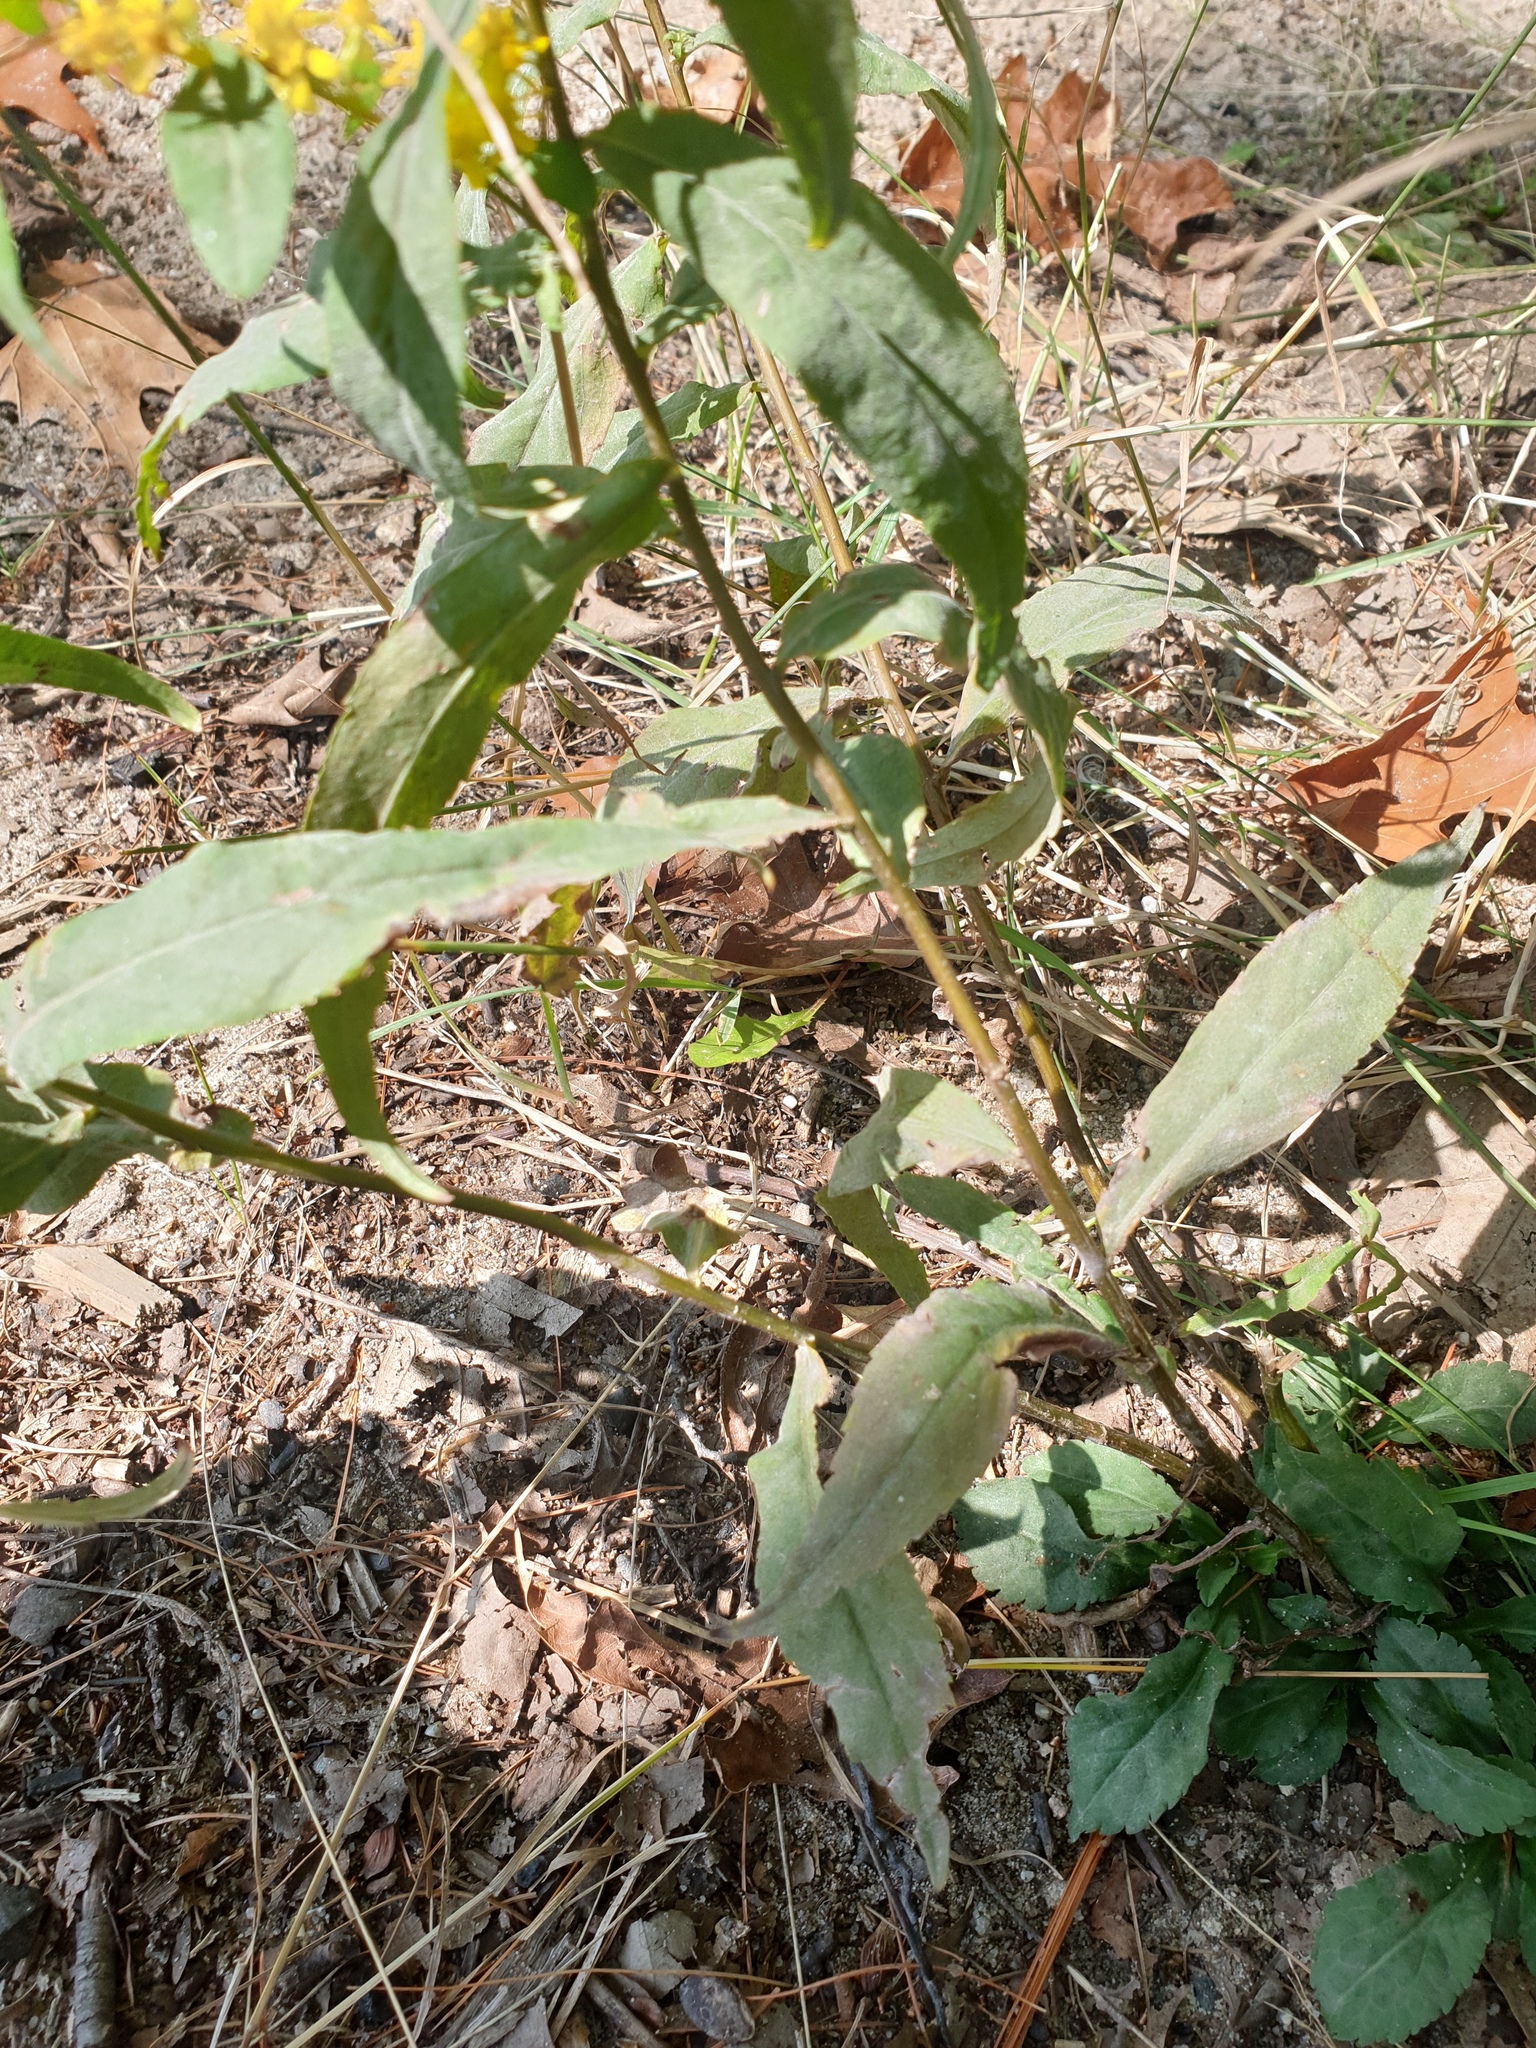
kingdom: Plantae
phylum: Tracheophyta
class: Magnoliopsida
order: Asterales
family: Asteraceae
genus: Solidago
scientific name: Solidago caesia
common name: Woodland goldenrod
